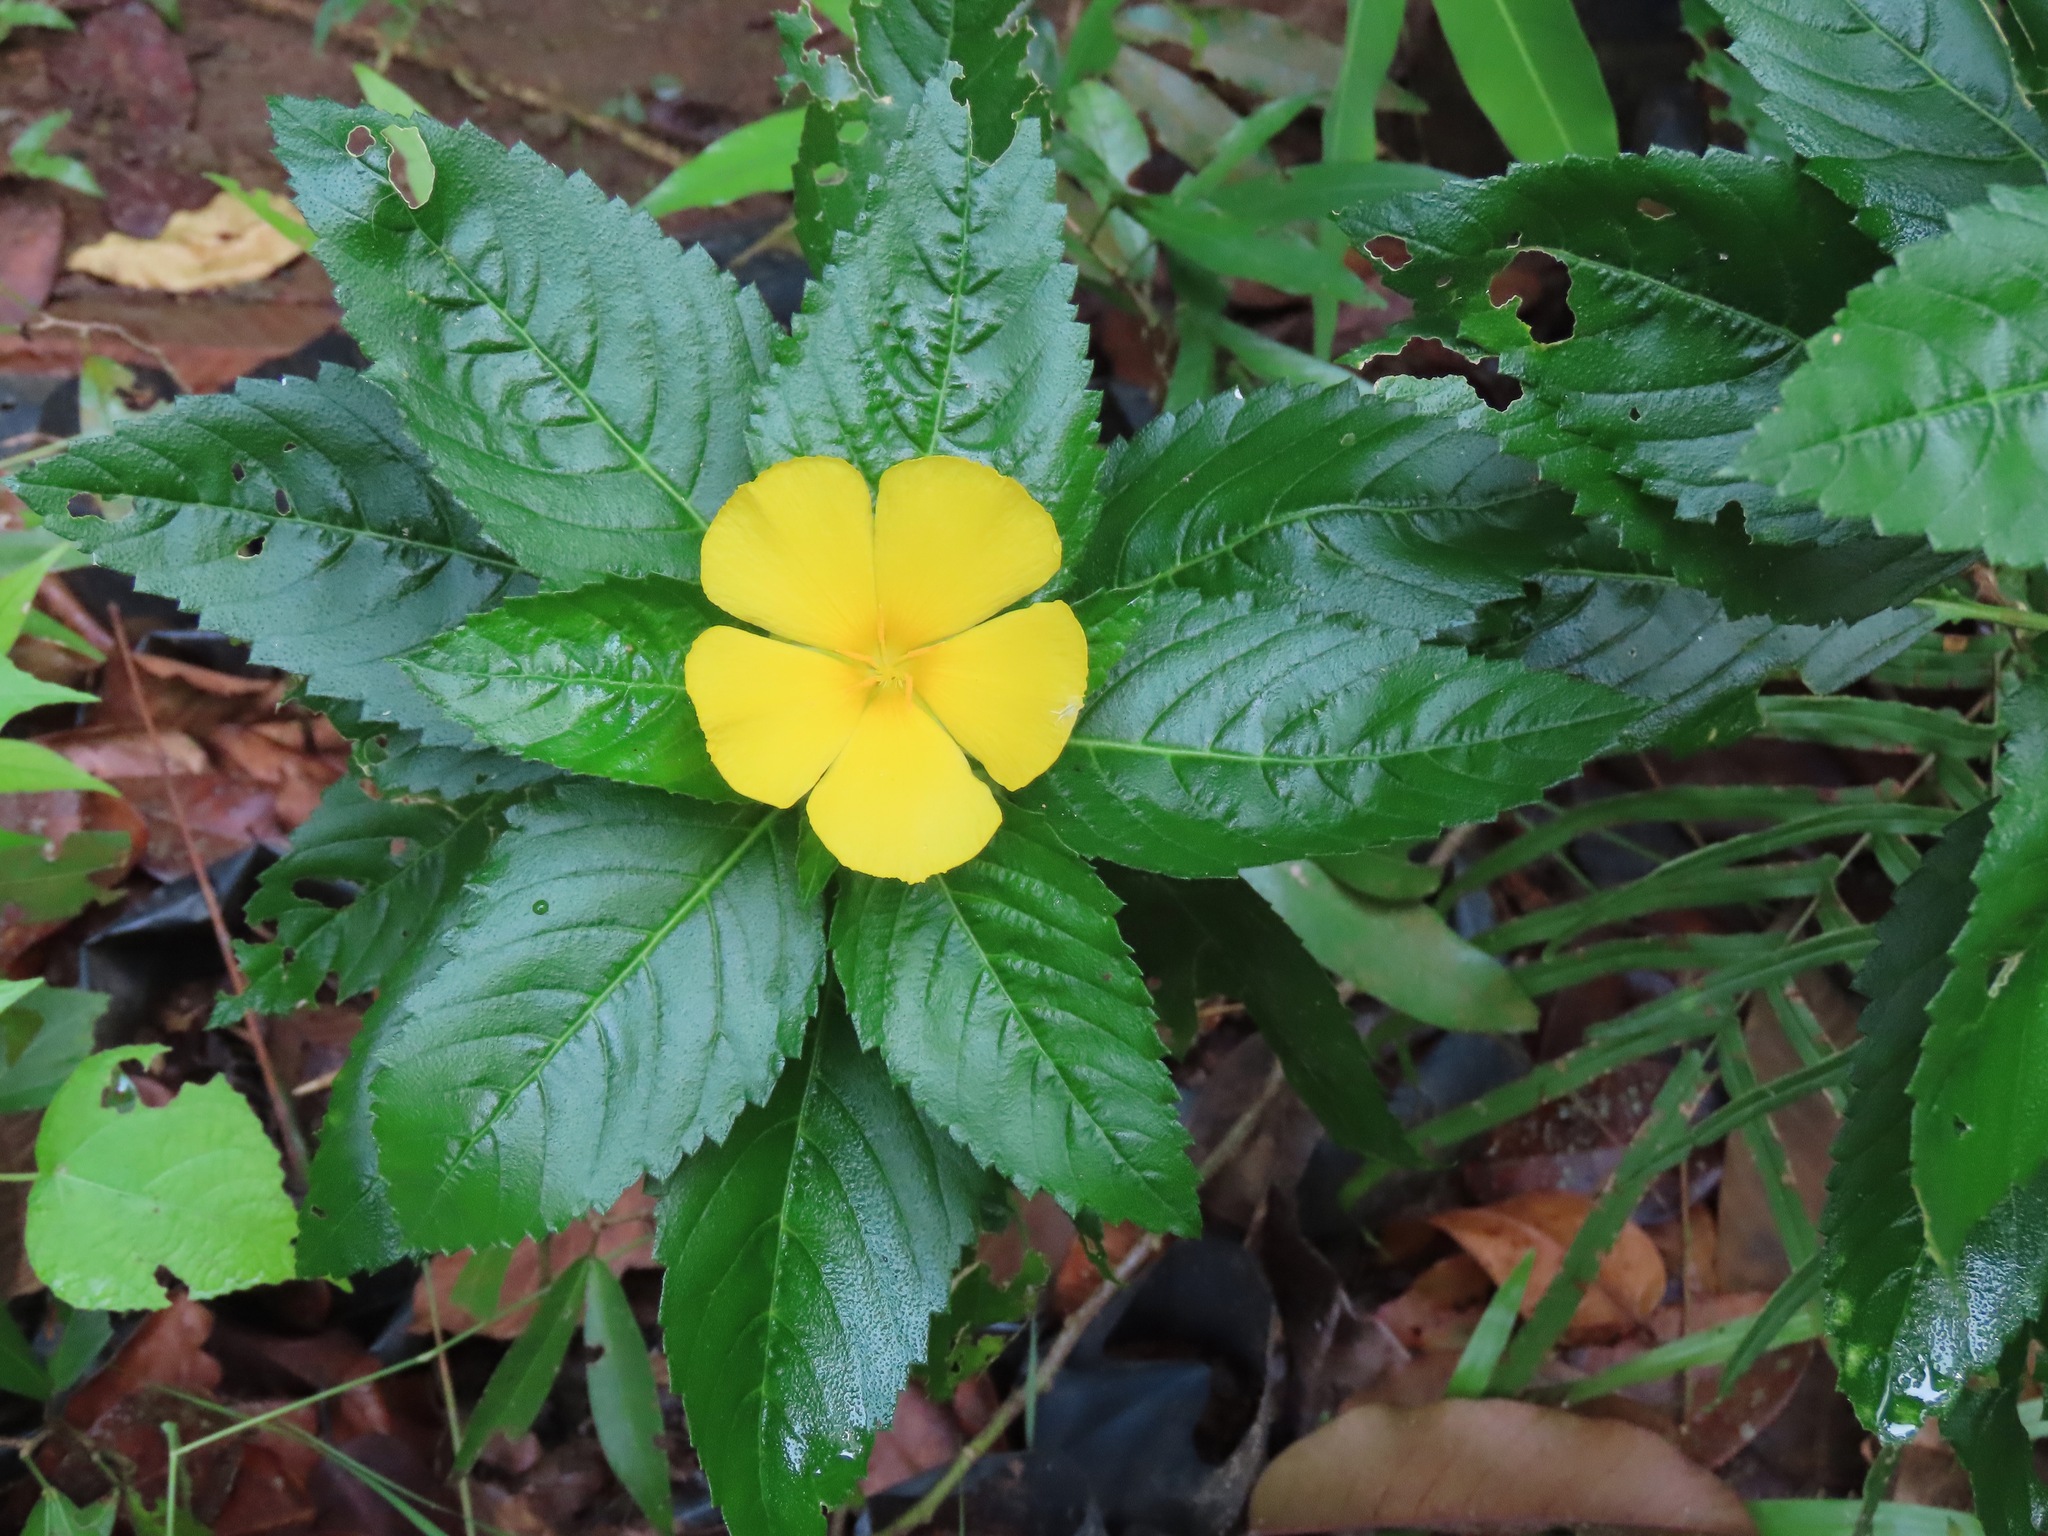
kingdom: Plantae
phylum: Tracheophyta
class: Magnoliopsida
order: Malpighiales
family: Turneraceae
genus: Turnera
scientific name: Turnera ulmifolia
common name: Ramgoat dashalong
